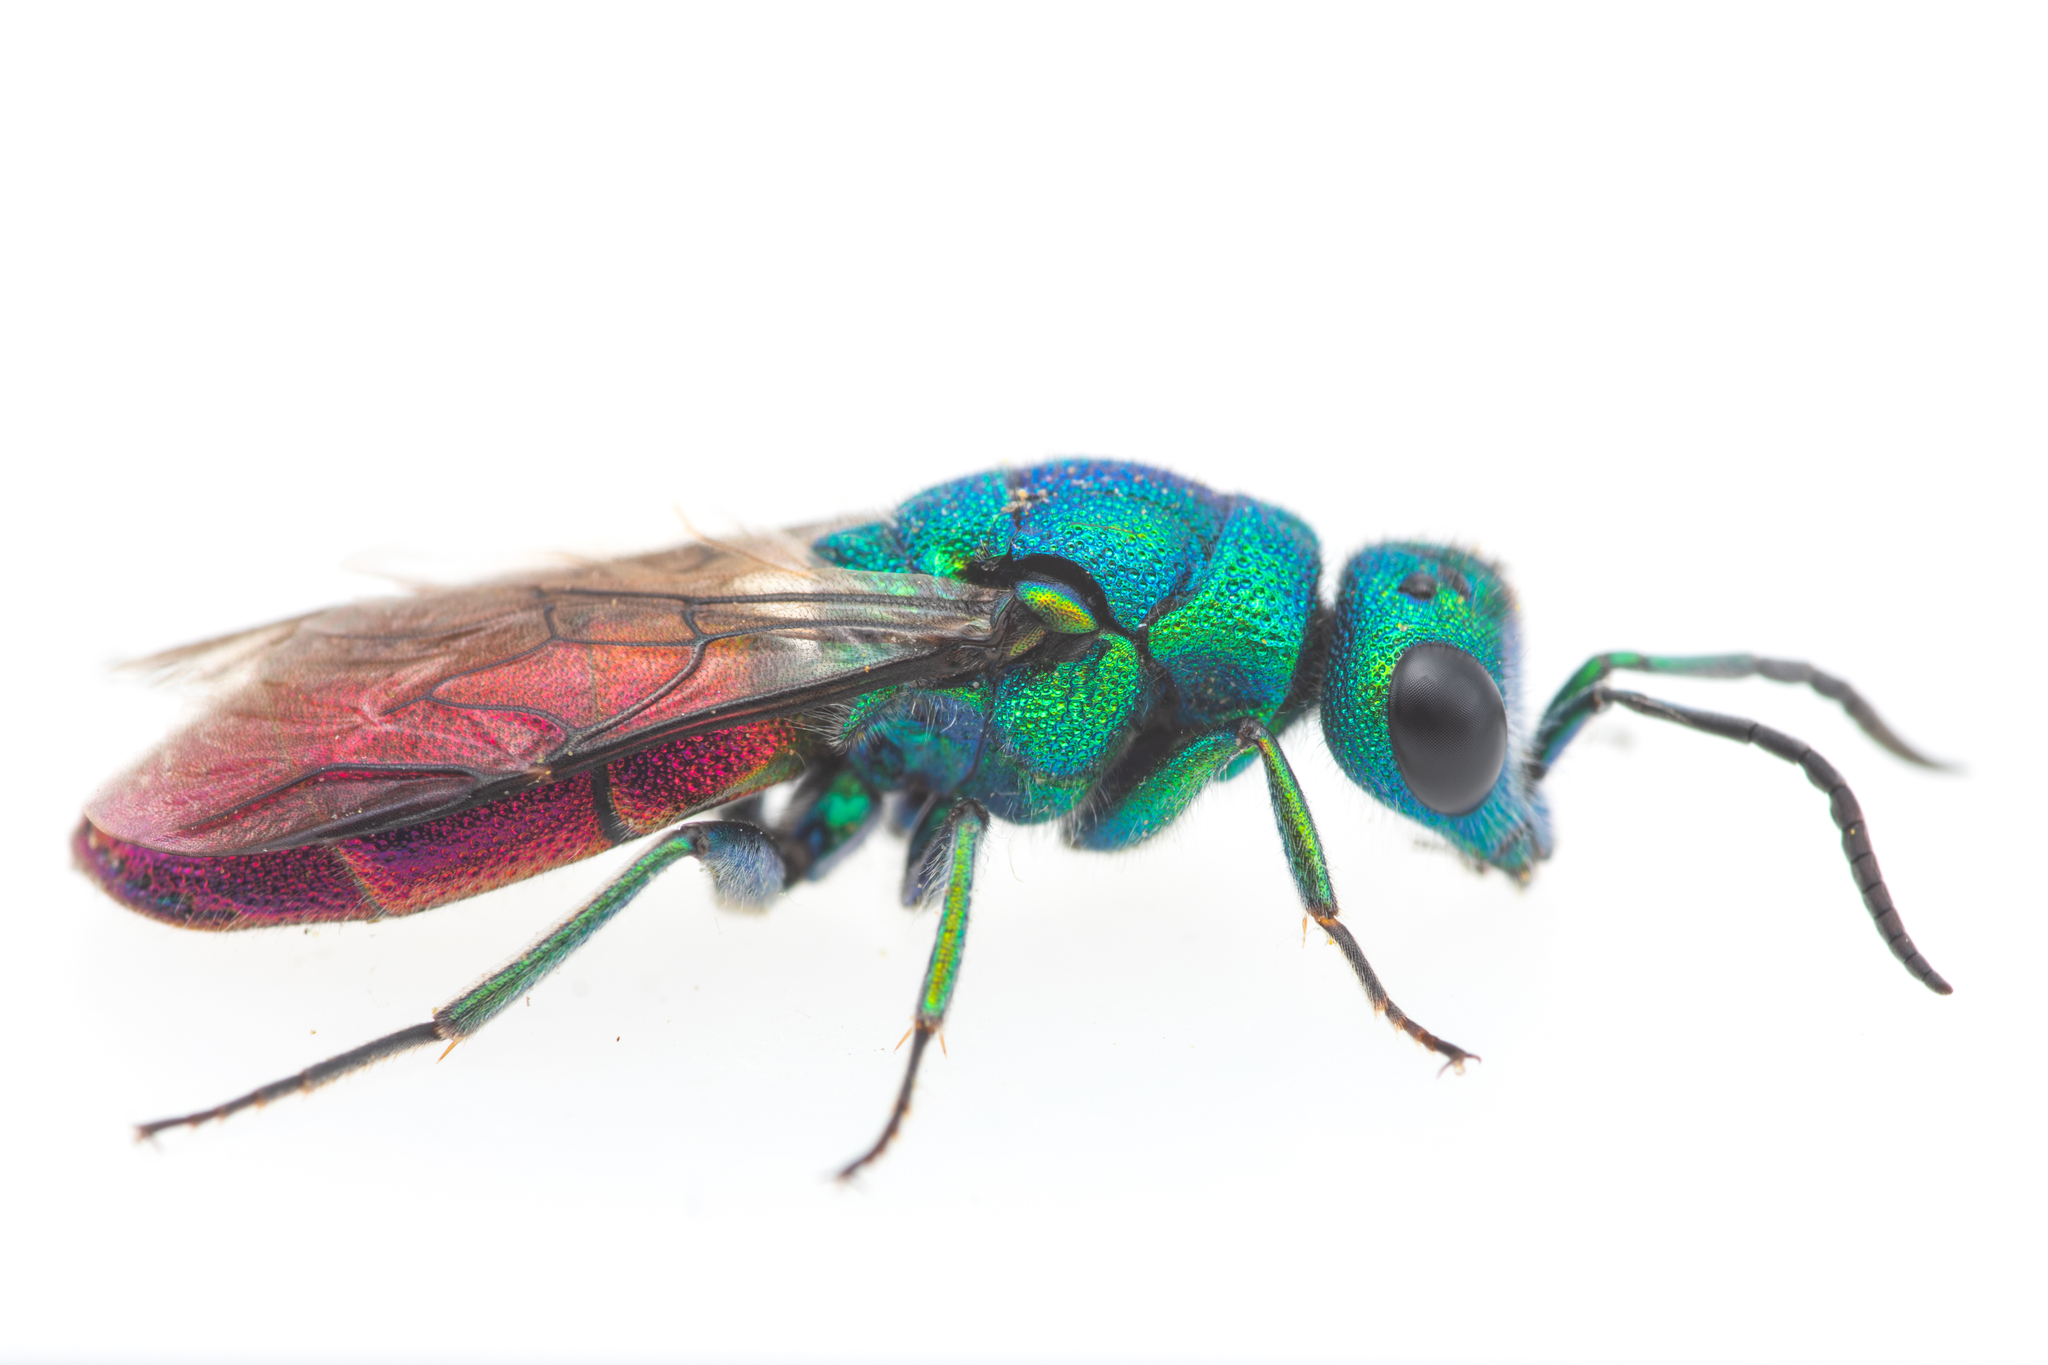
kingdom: Animalia
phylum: Arthropoda
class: Insecta
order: Hymenoptera
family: Chrysididae
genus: Chrysura
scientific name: Chrysura refulgens
